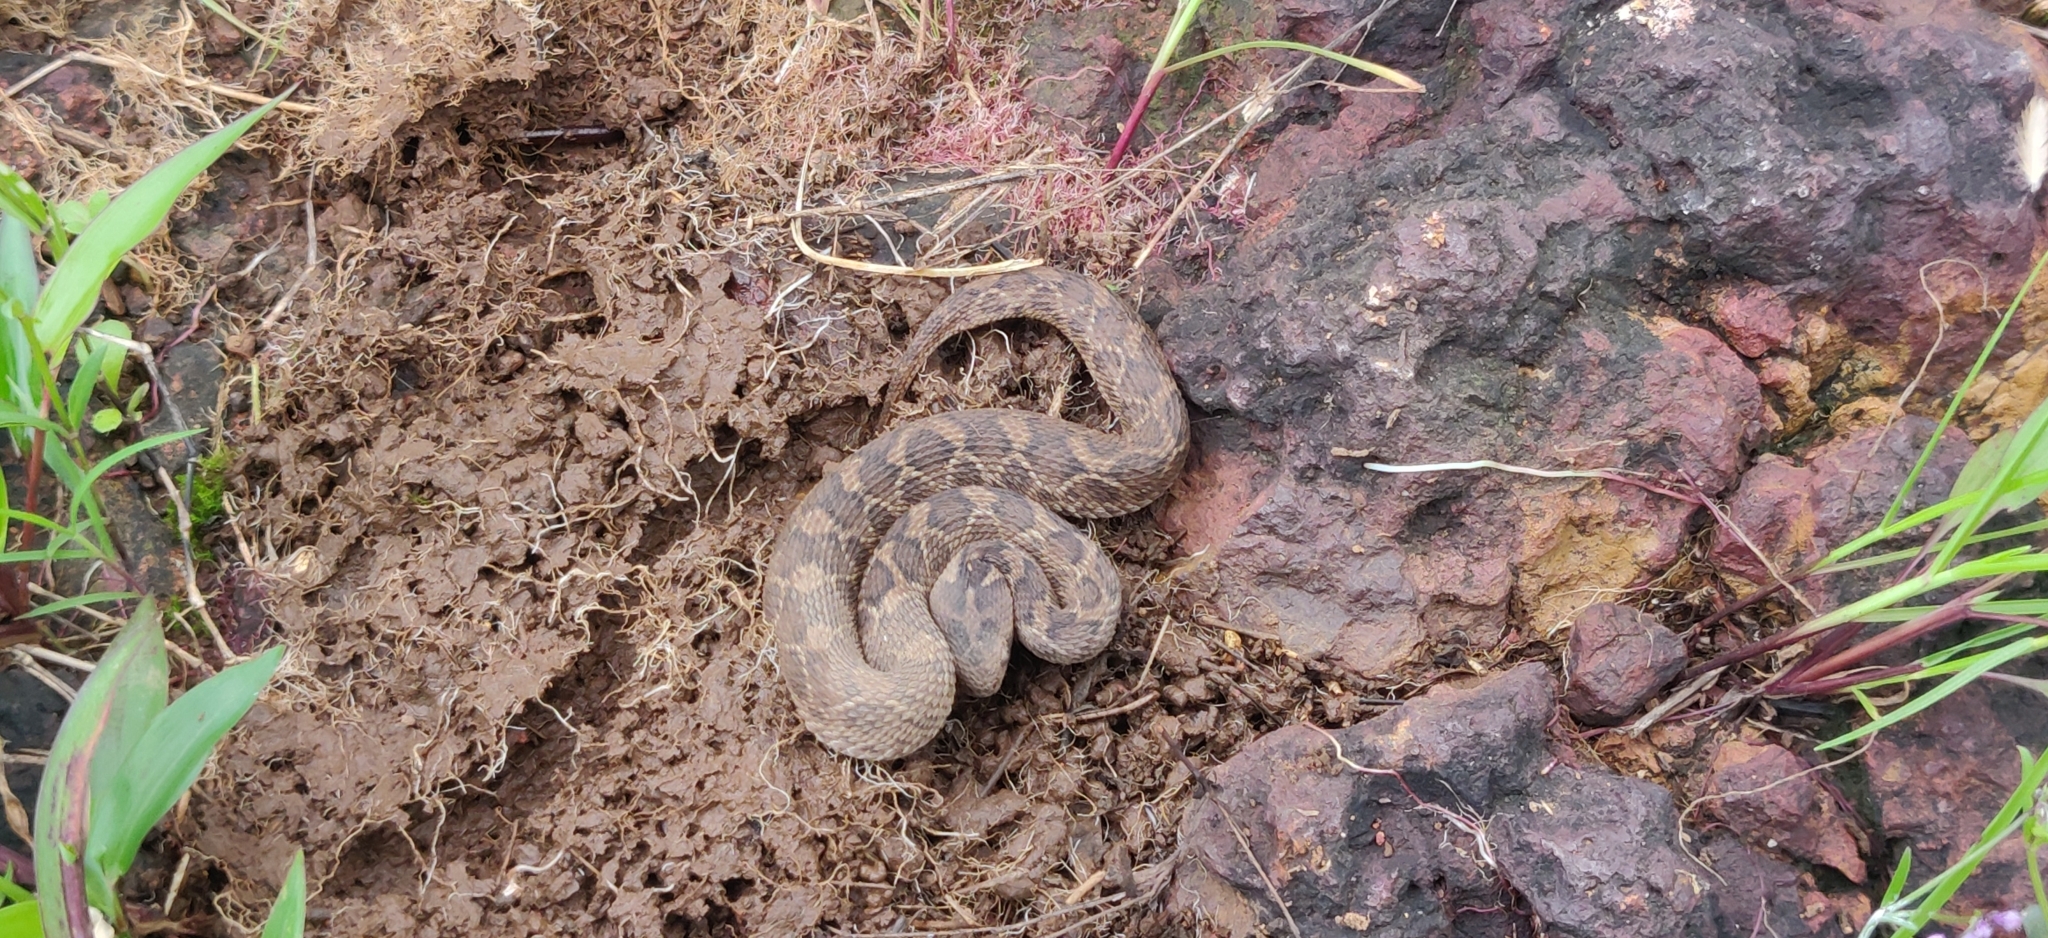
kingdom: Animalia
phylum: Chordata
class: Squamata
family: Viperidae
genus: Echis
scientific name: Echis carinatus
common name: Saw-scaled viper
